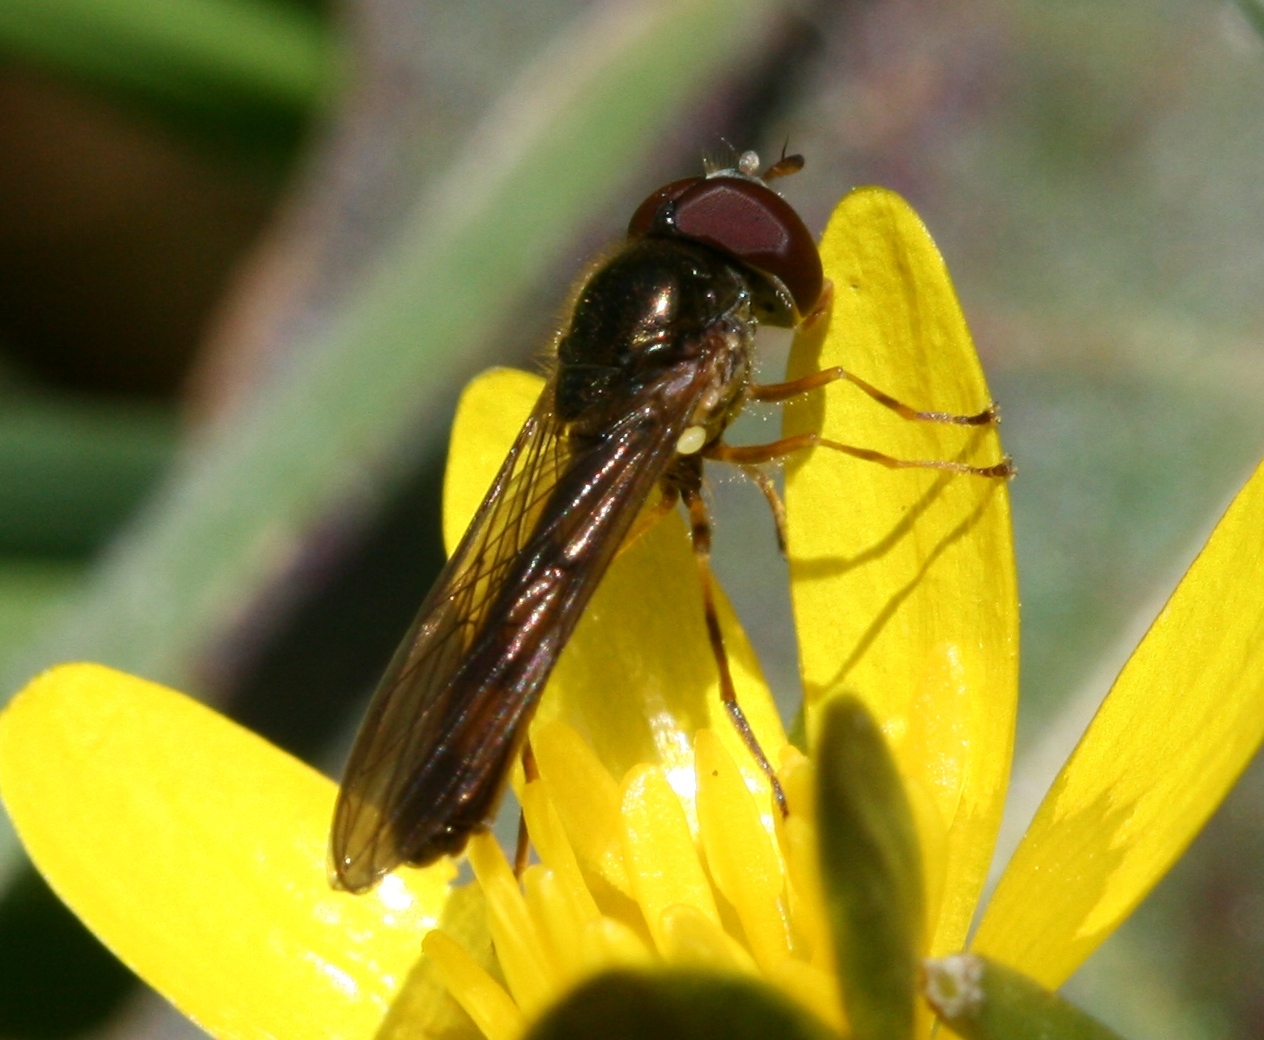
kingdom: Animalia
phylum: Arthropoda
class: Insecta
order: Diptera
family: Syrphidae
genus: Melanostoma
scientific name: Melanostoma scalare
